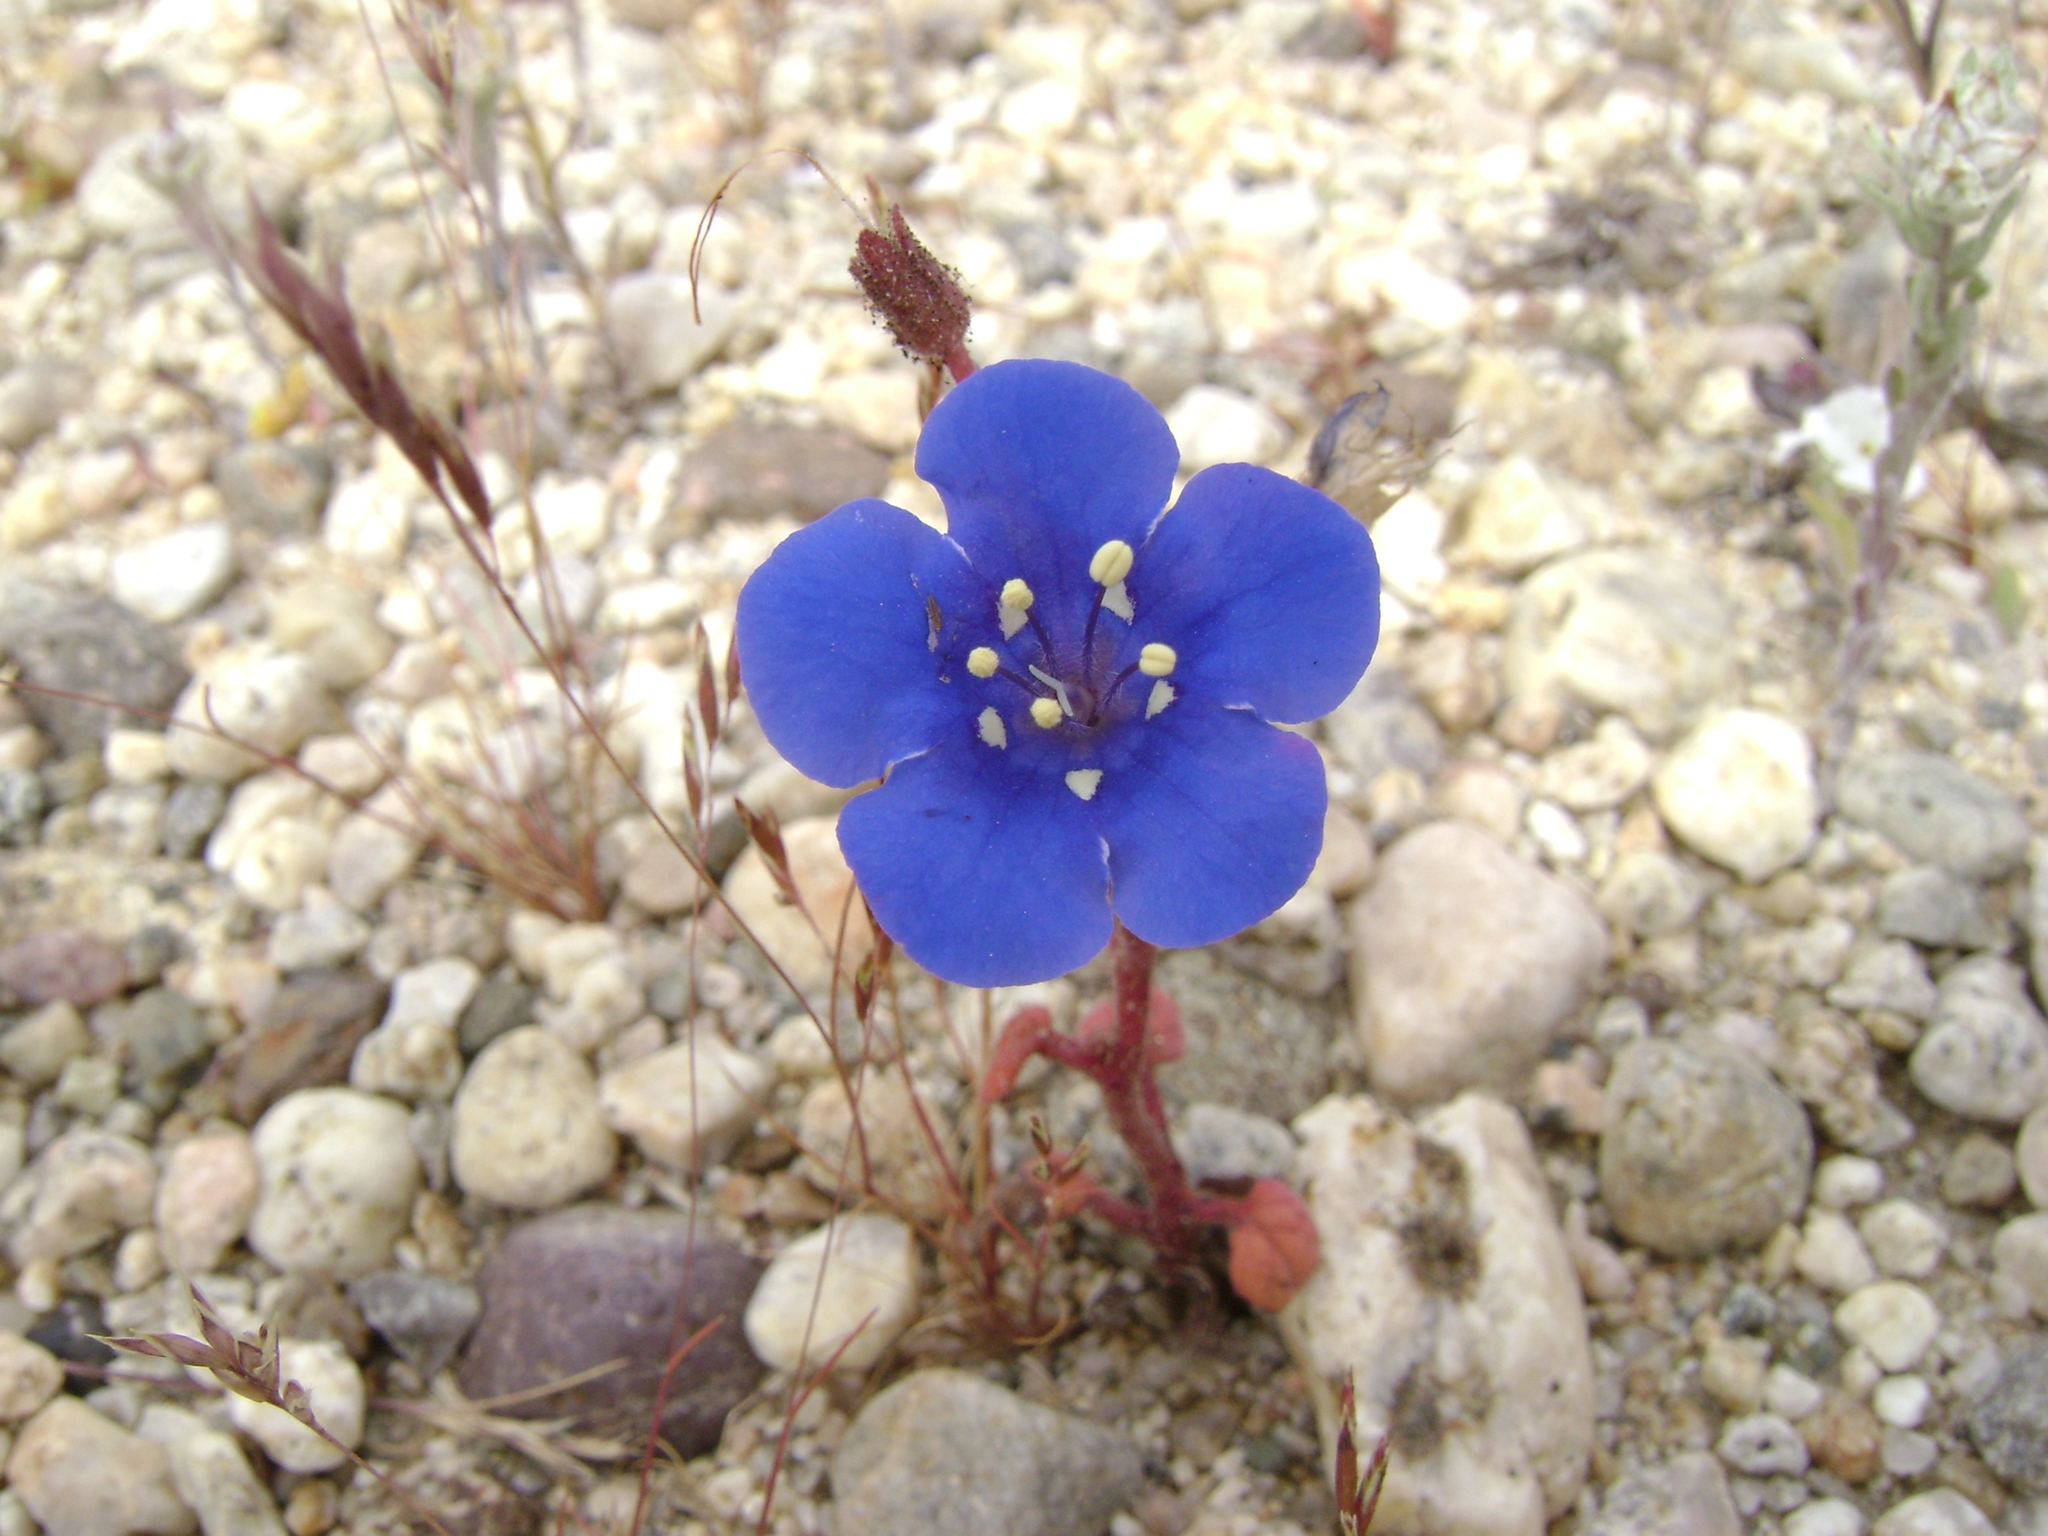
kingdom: Plantae
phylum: Tracheophyta
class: Magnoliopsida
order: Boraginales
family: Hydrophyllaceae
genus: Phacelia
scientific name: Phacelia campanularia
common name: California bluebell
